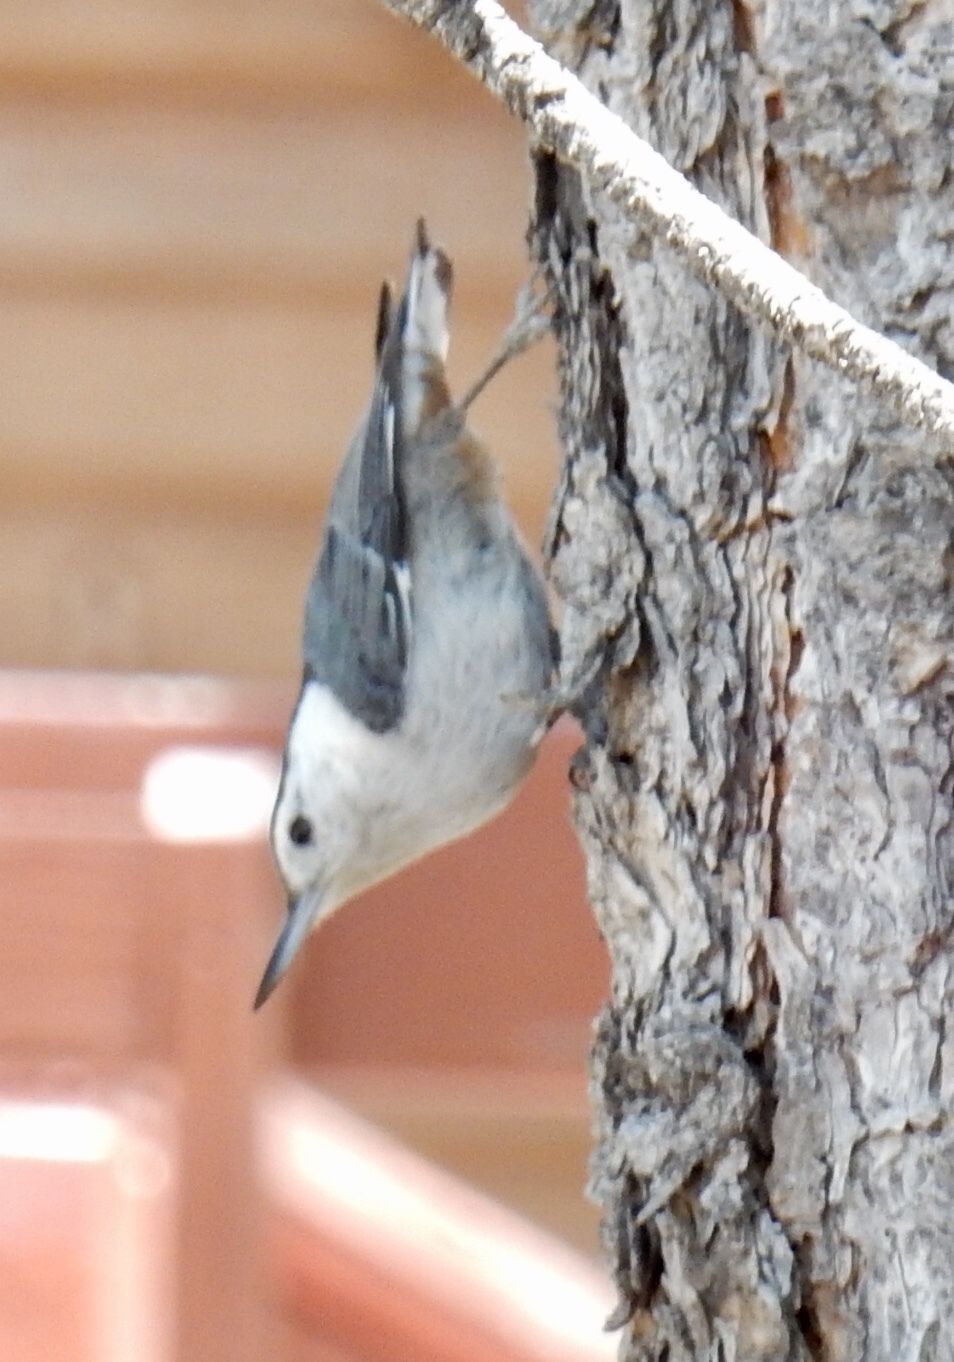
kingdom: Animalia
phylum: Chordata
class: Aves
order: Passeriformes
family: Sittidae
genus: Sitta
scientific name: Sitta carolinensis
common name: White-breasted nuthatch
